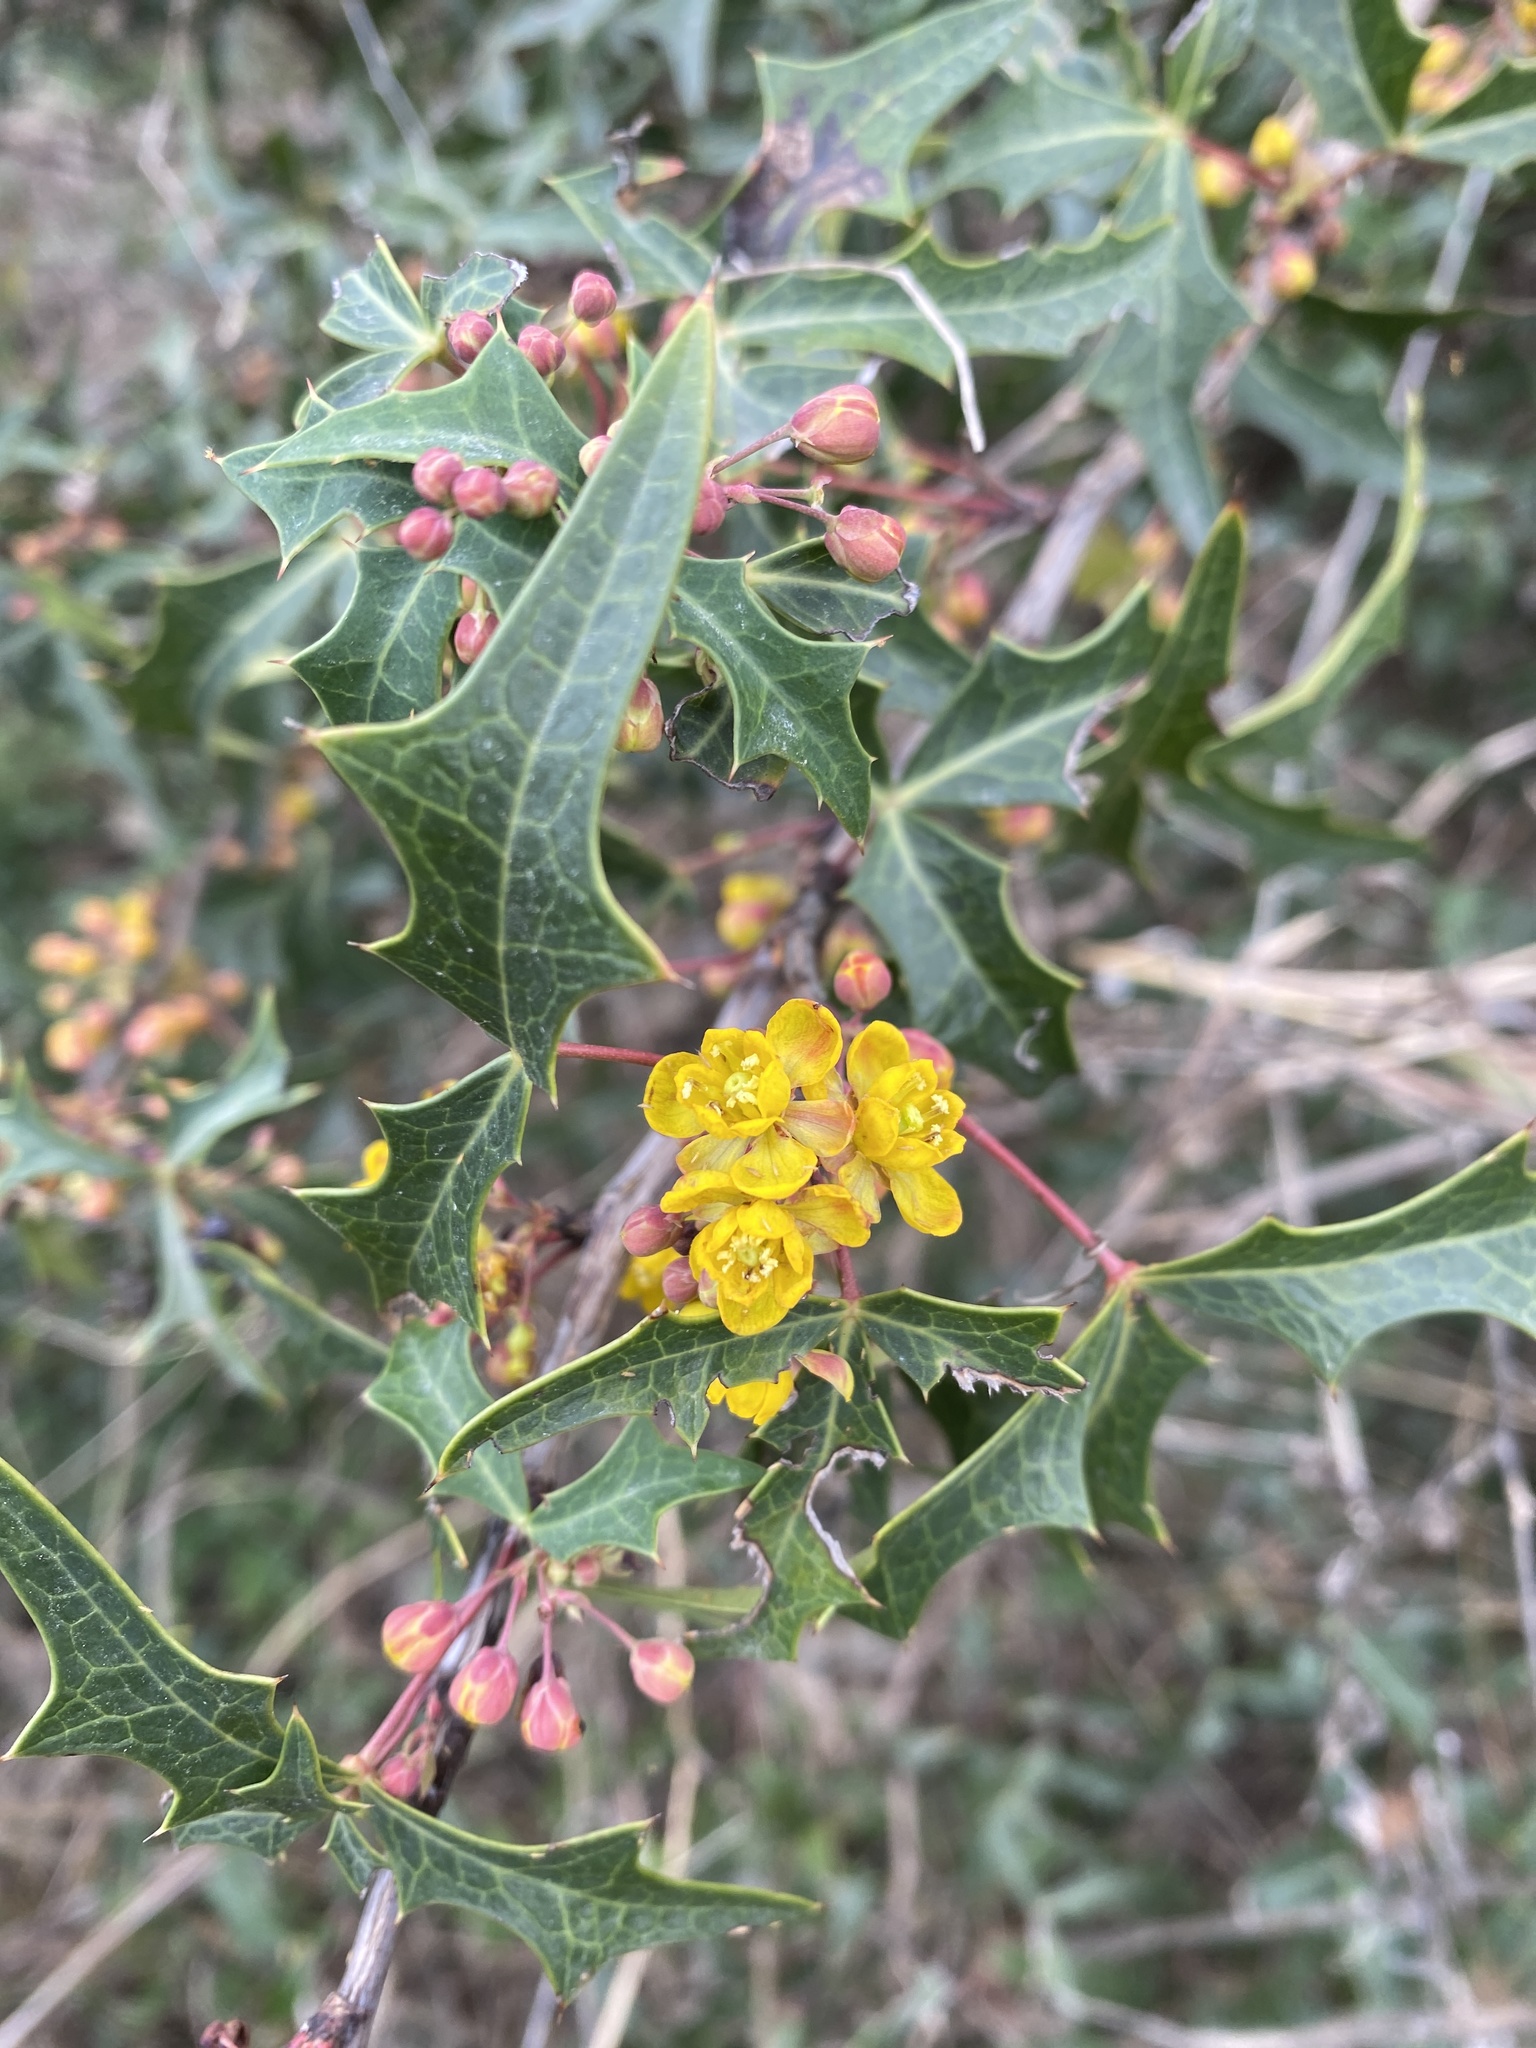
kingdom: Plantae
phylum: Tracheophyta
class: Magnoliopsida
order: Ranunculales
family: Berberidaceae
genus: Alloberberis
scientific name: Alloberberis trifoliolata
